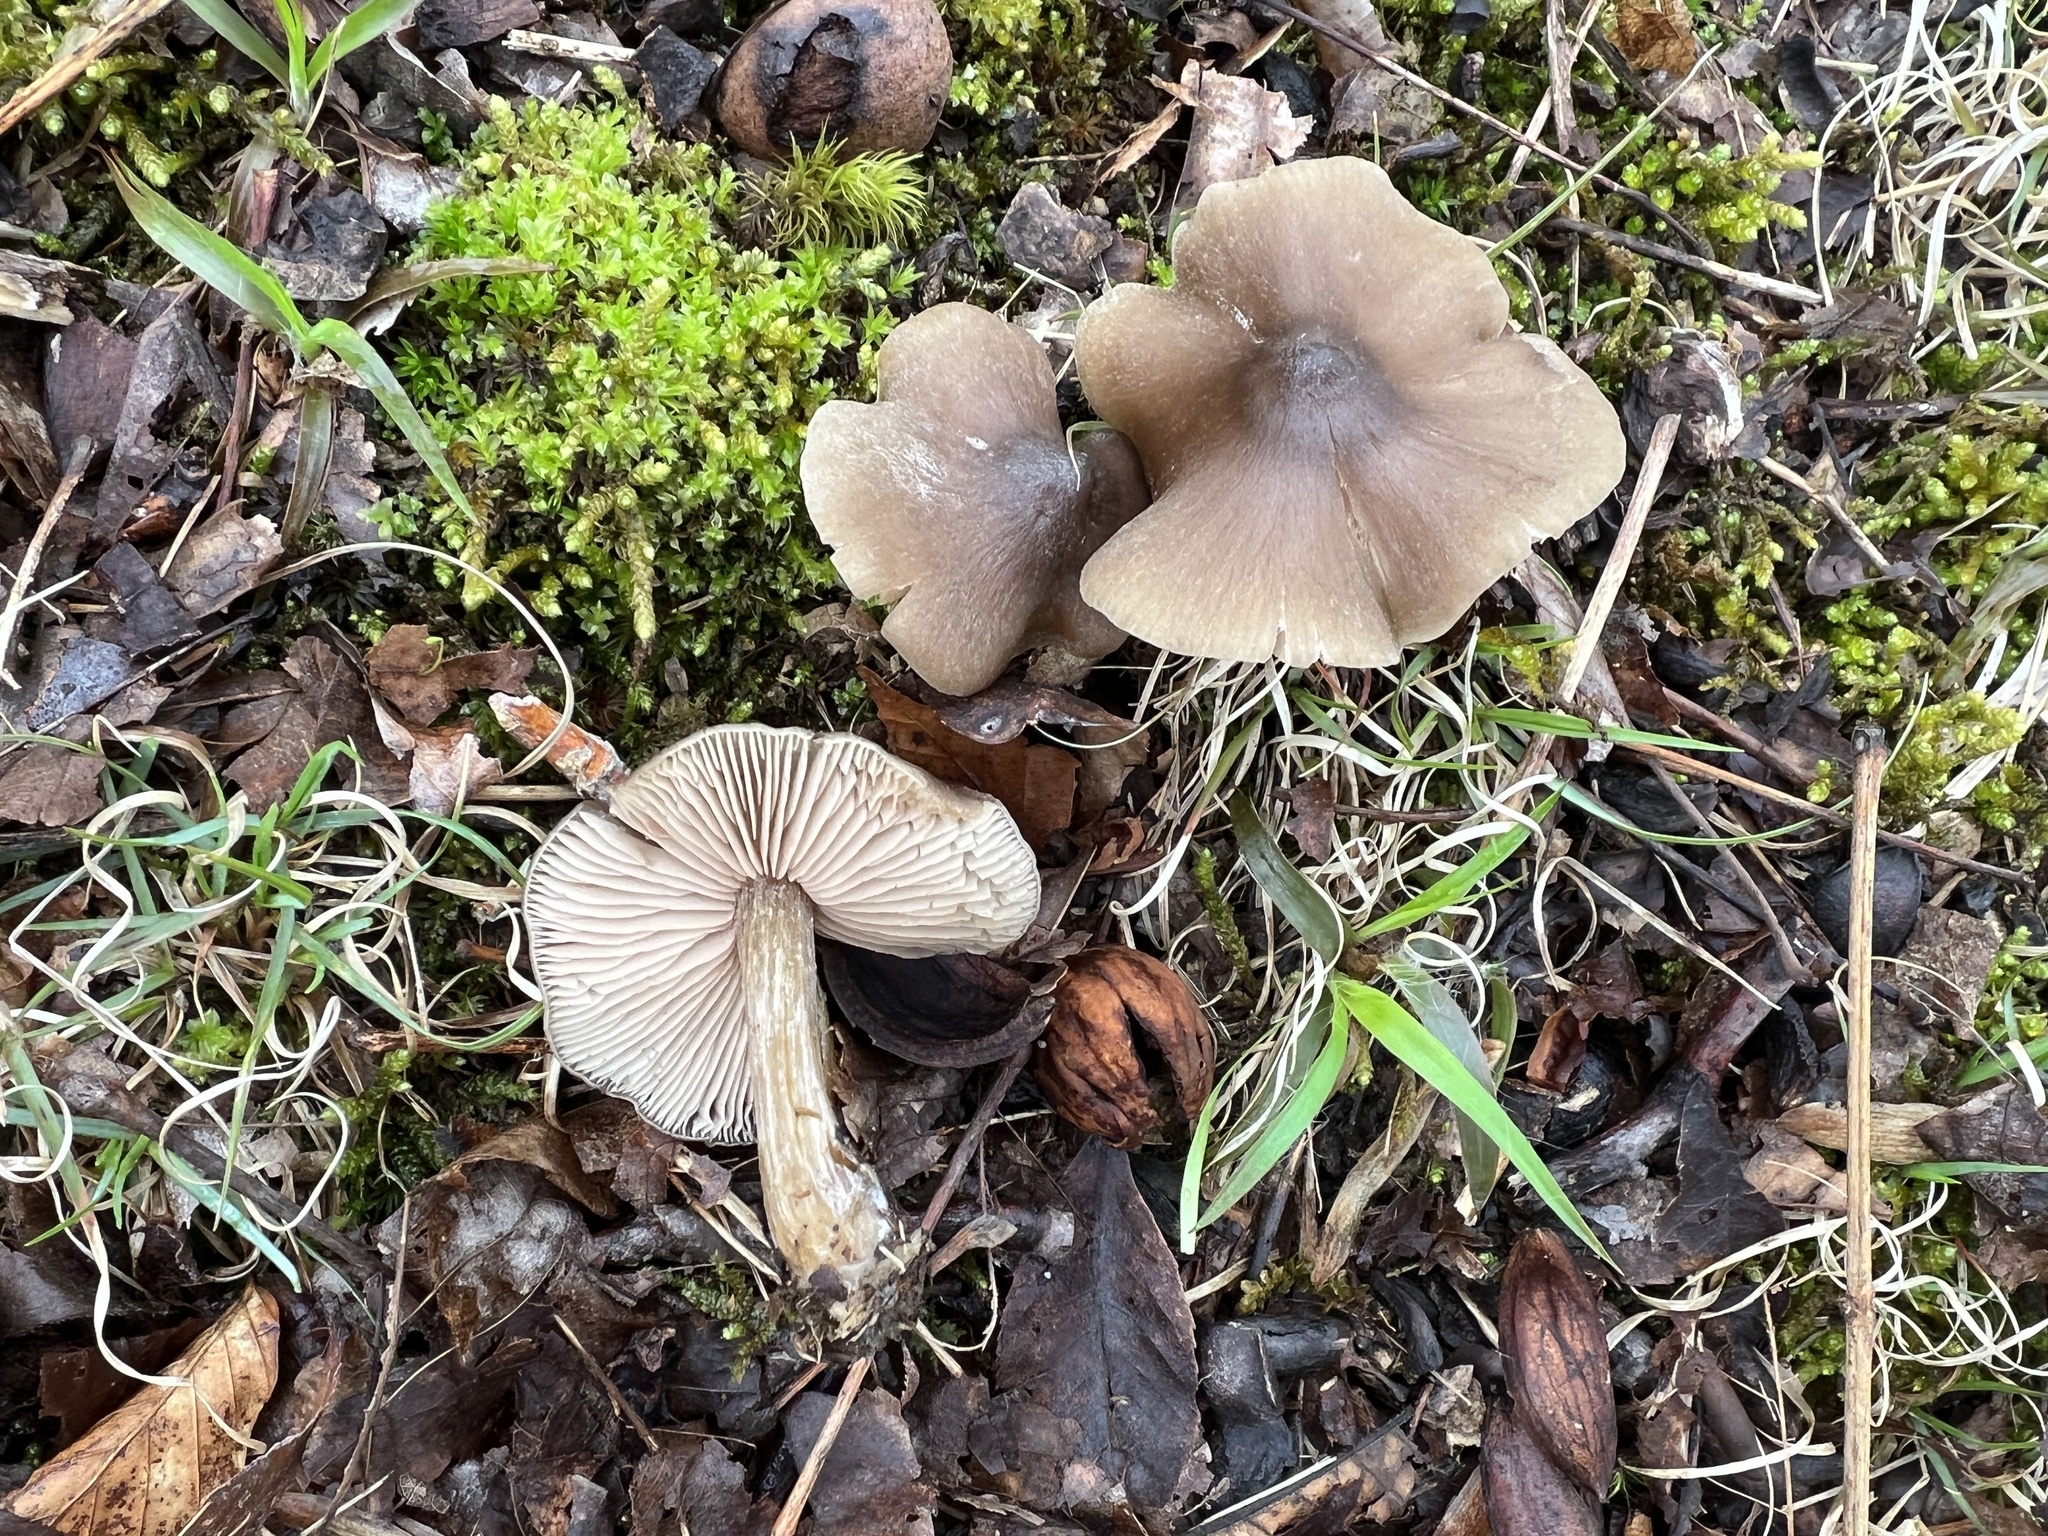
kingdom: Fungi
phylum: Basidiomycota
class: Agaricomycetes
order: Agaricales
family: Entolomataceae
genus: Entoloma
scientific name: Entoloma vernum
